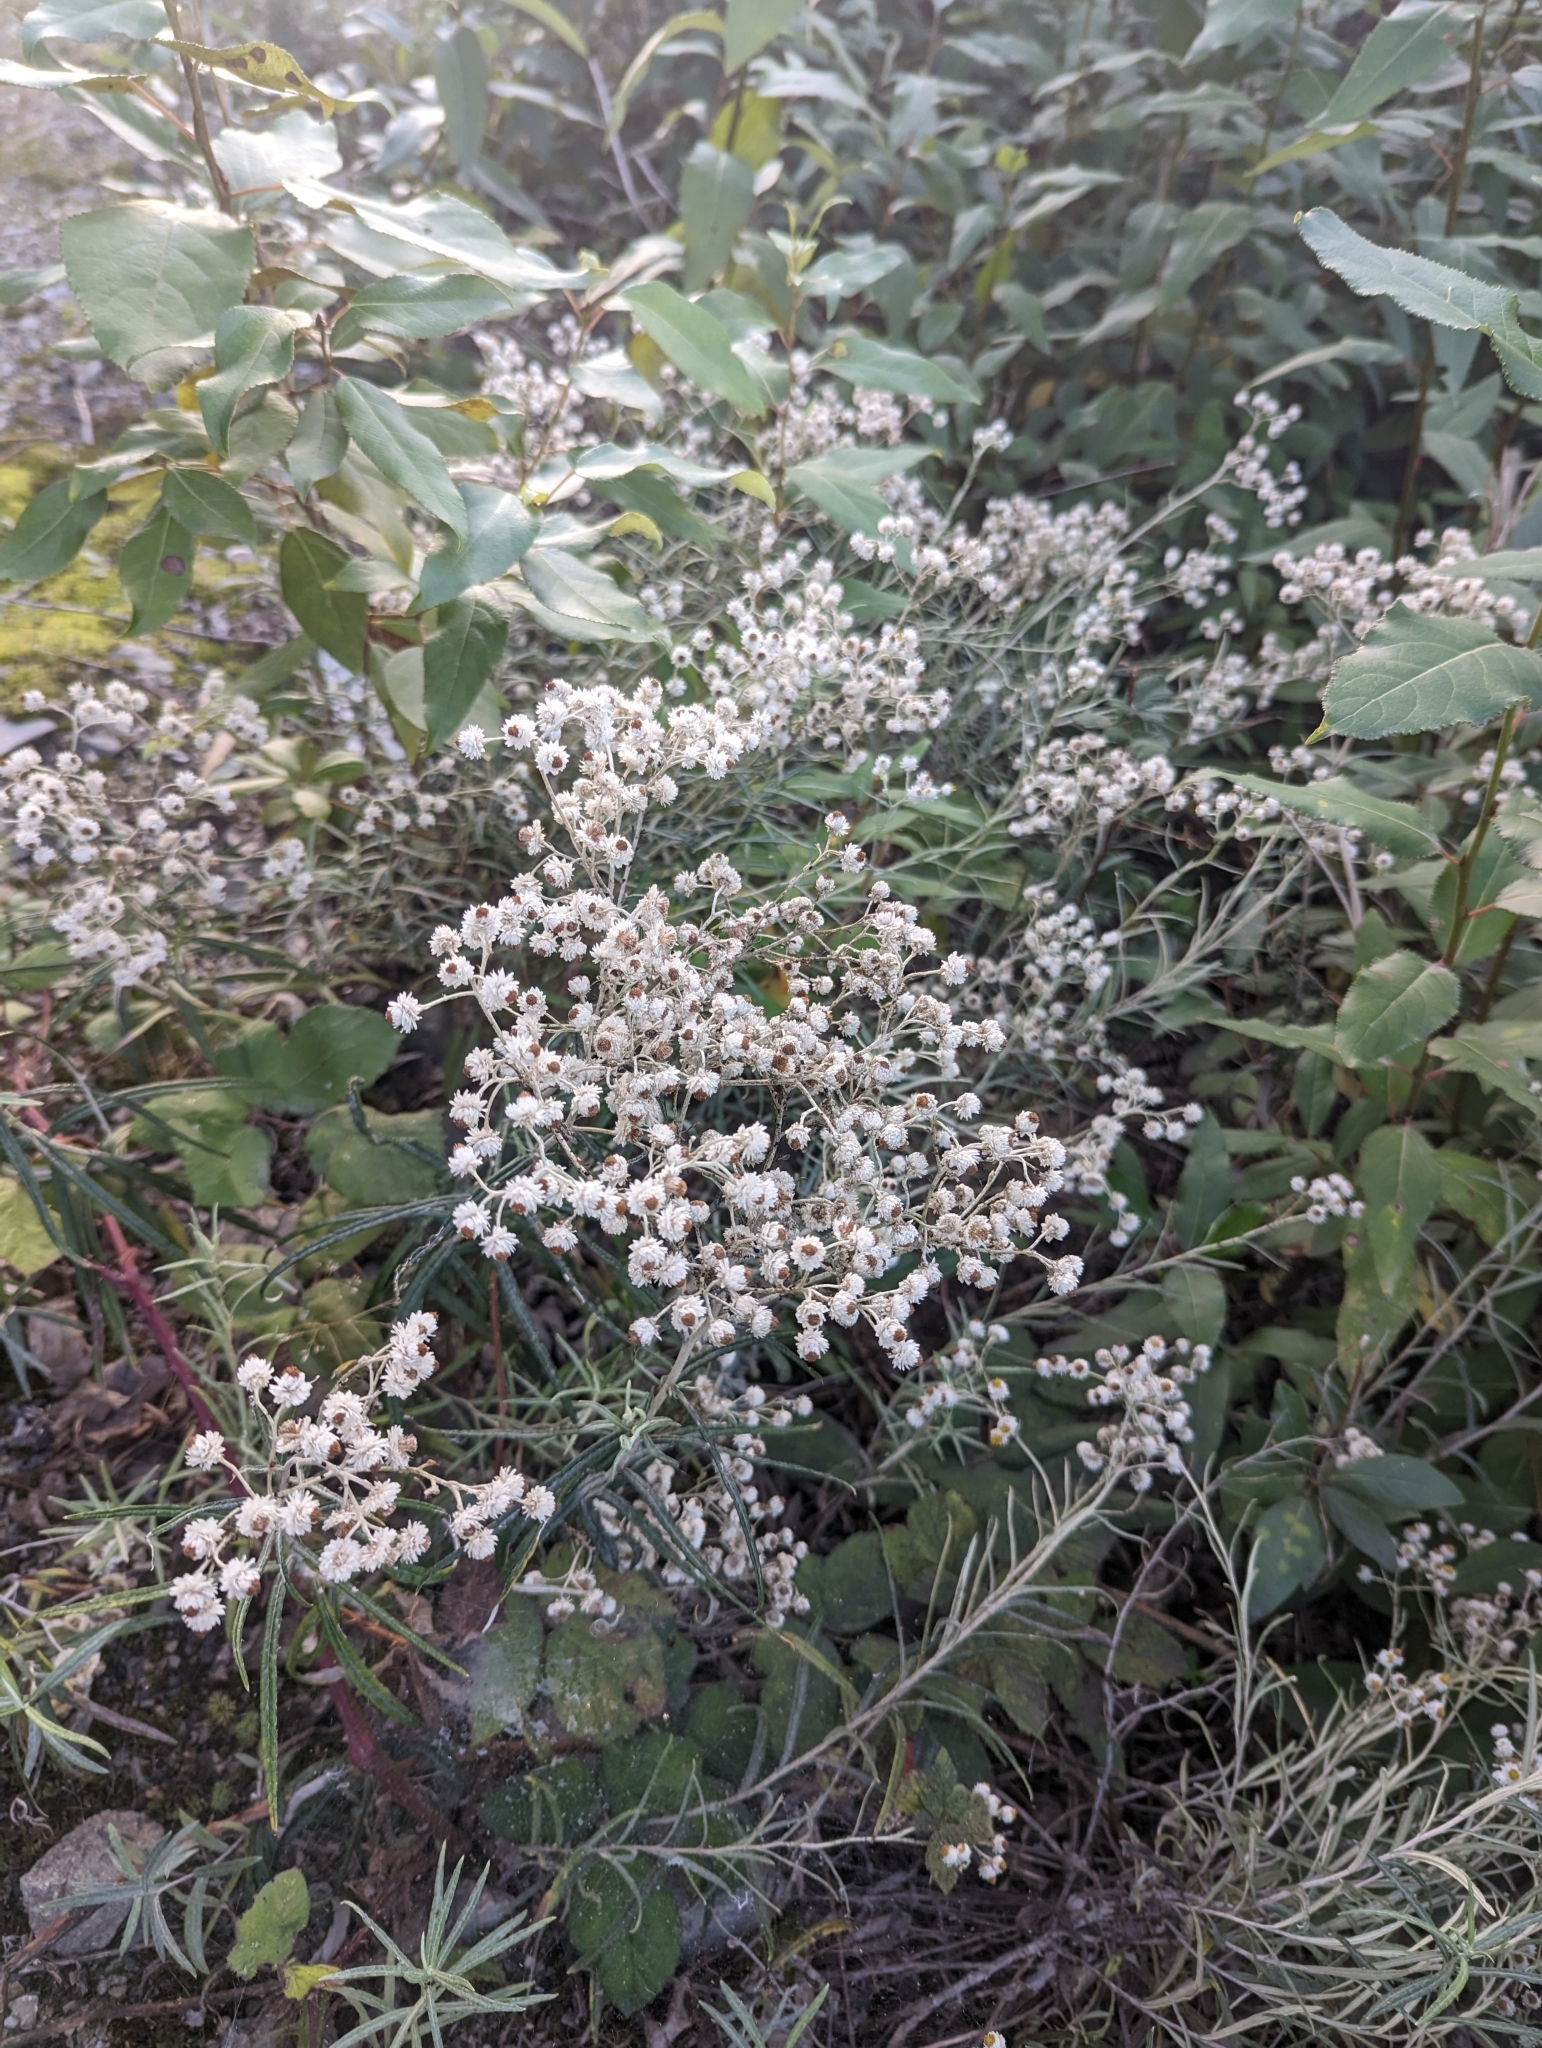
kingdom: Plantae
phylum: Tracheophyta
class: Magnoliopsida
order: Asterales
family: Asteraceae
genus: Anaphalis
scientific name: Anaphalis margaritacea
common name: Pearly everlasting
